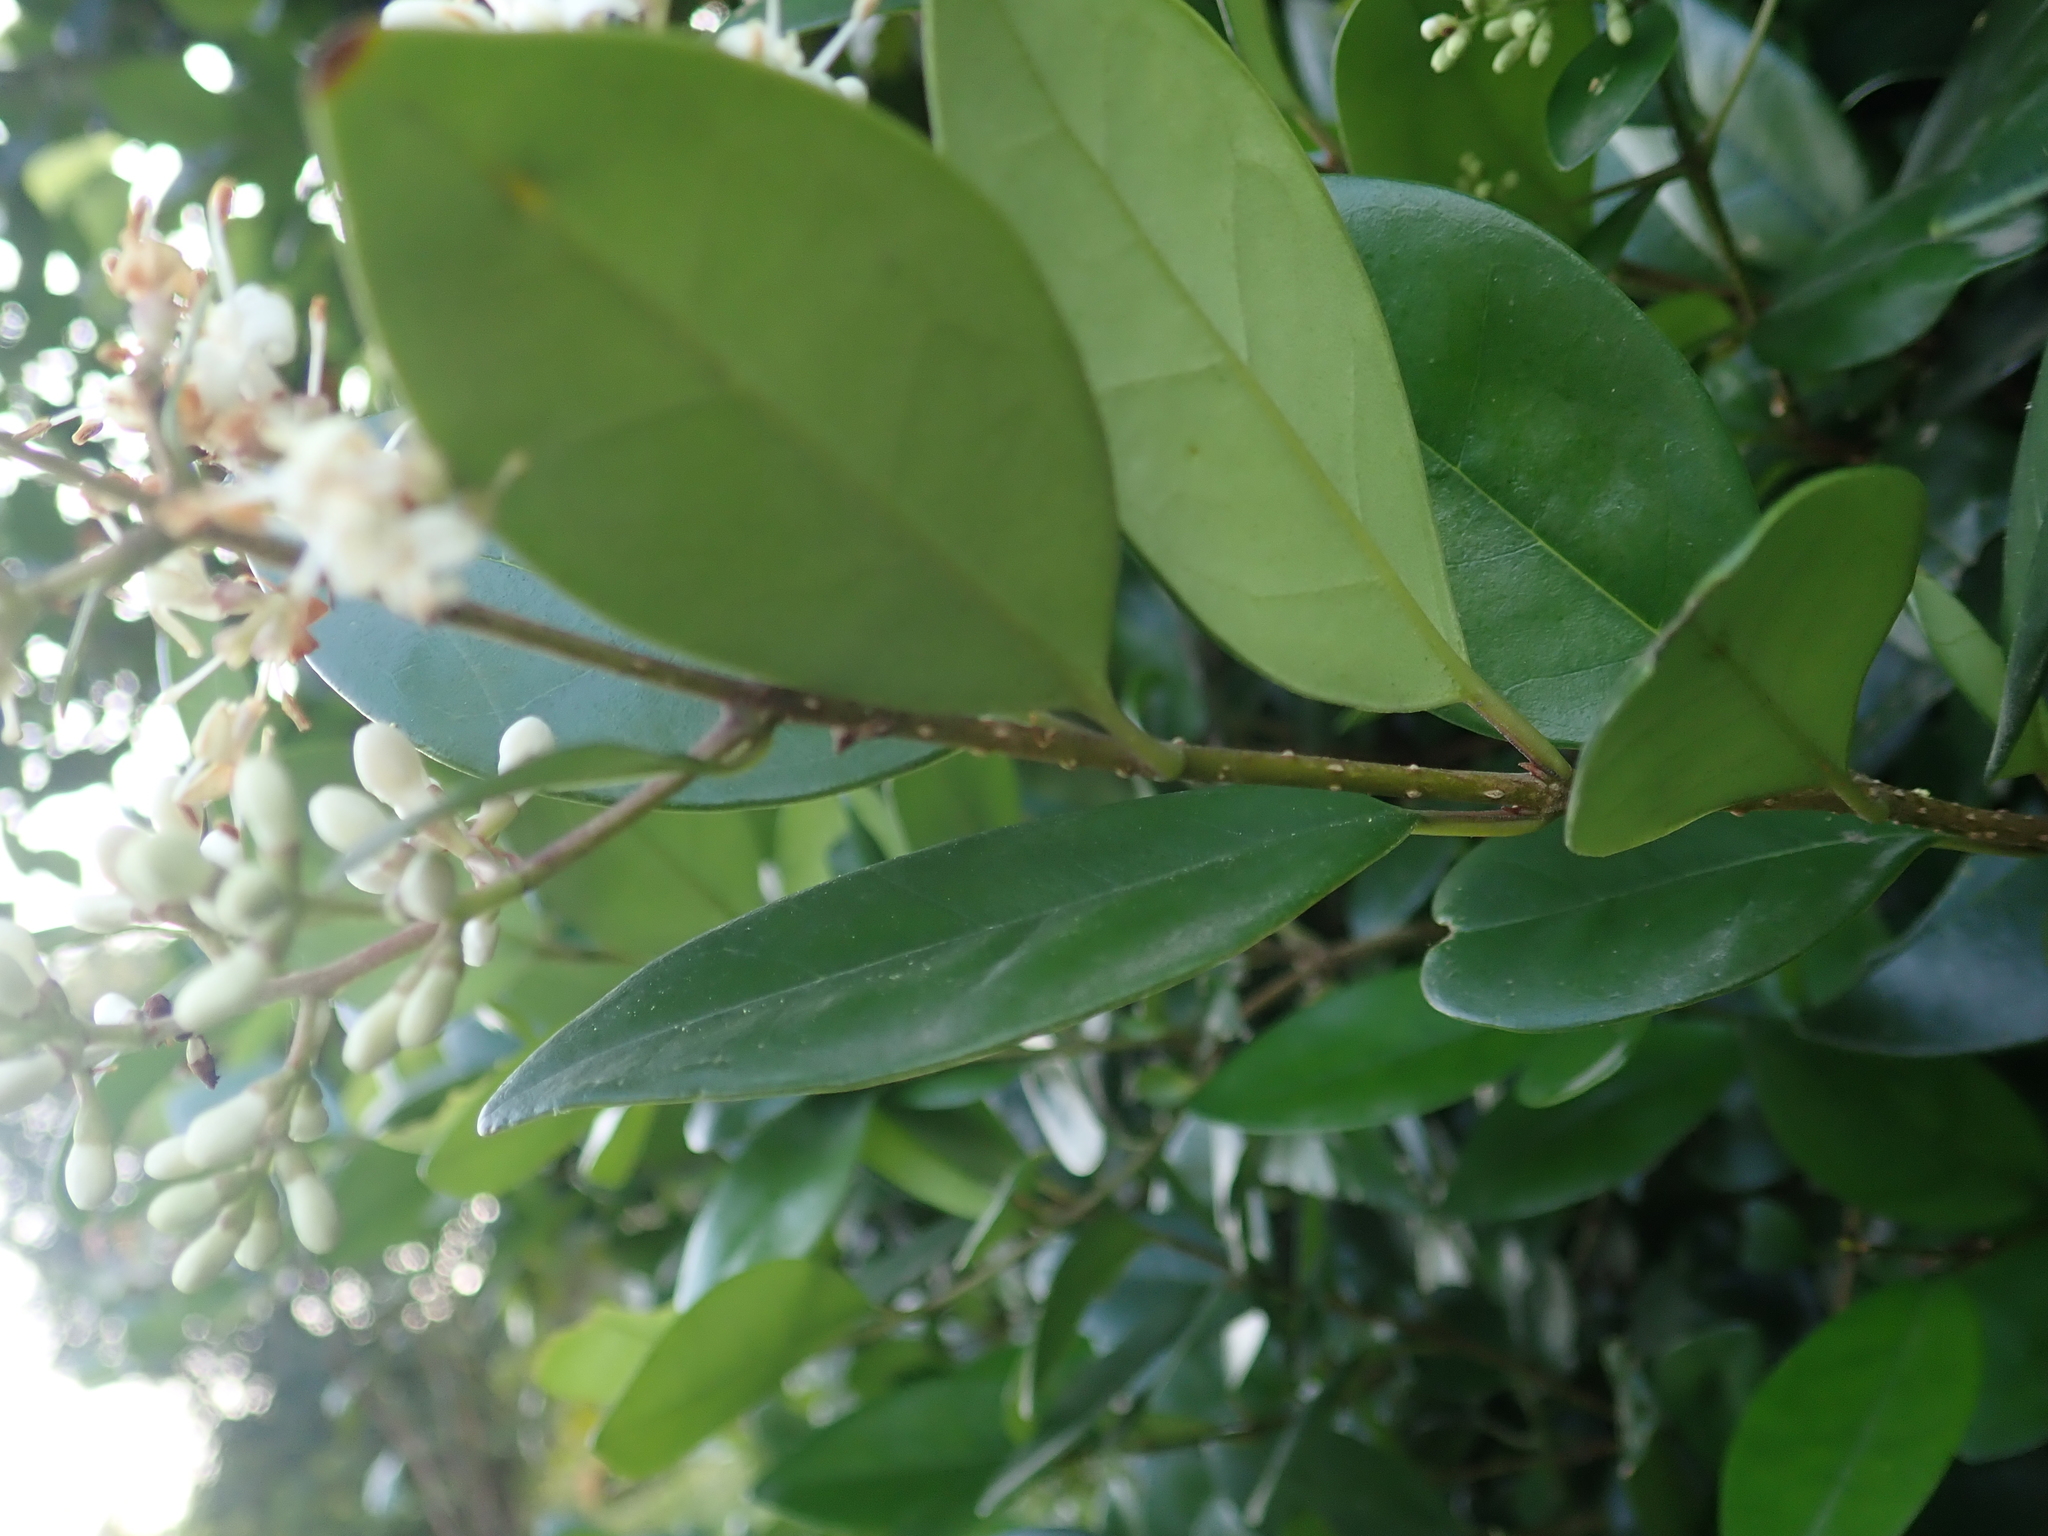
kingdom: Plantae
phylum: Tracheophyta
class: Magnoliopsida
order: Lamiales
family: Oleaceae
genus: Ligustrum
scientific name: Ligustrum liukiuense
